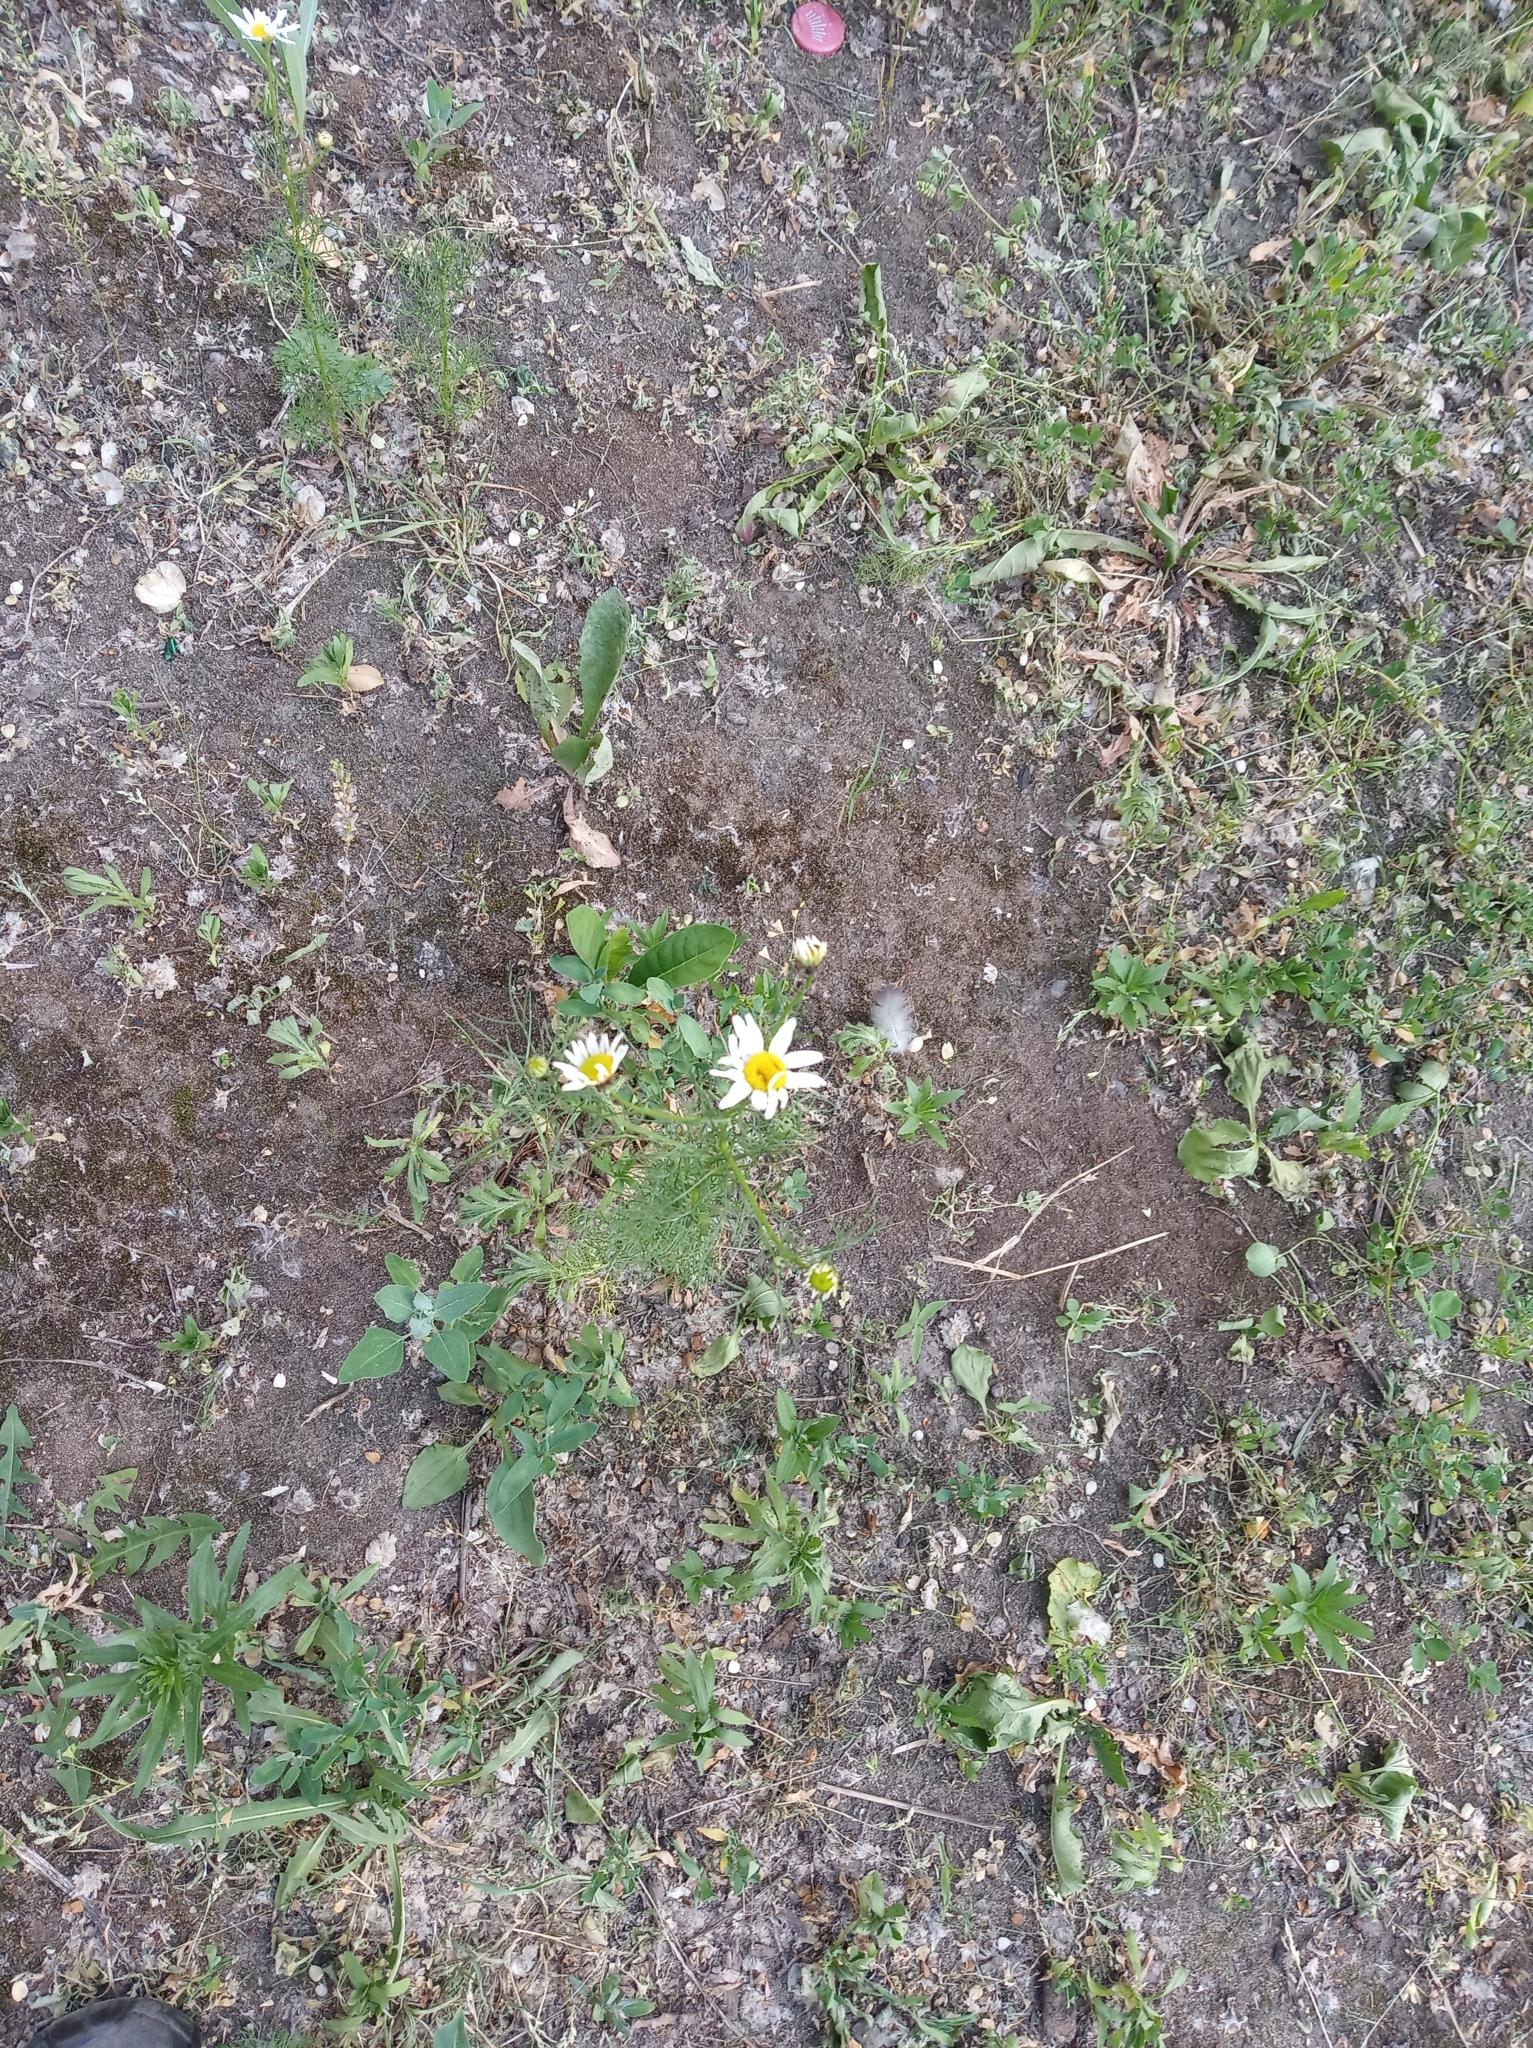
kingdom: Plantae
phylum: Tracheophyta
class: Magnoliopsida
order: Asterales
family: Asteraceae
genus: Tripleurospermum
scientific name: Tripleurospermum inodorum
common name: Scentless mayweed
